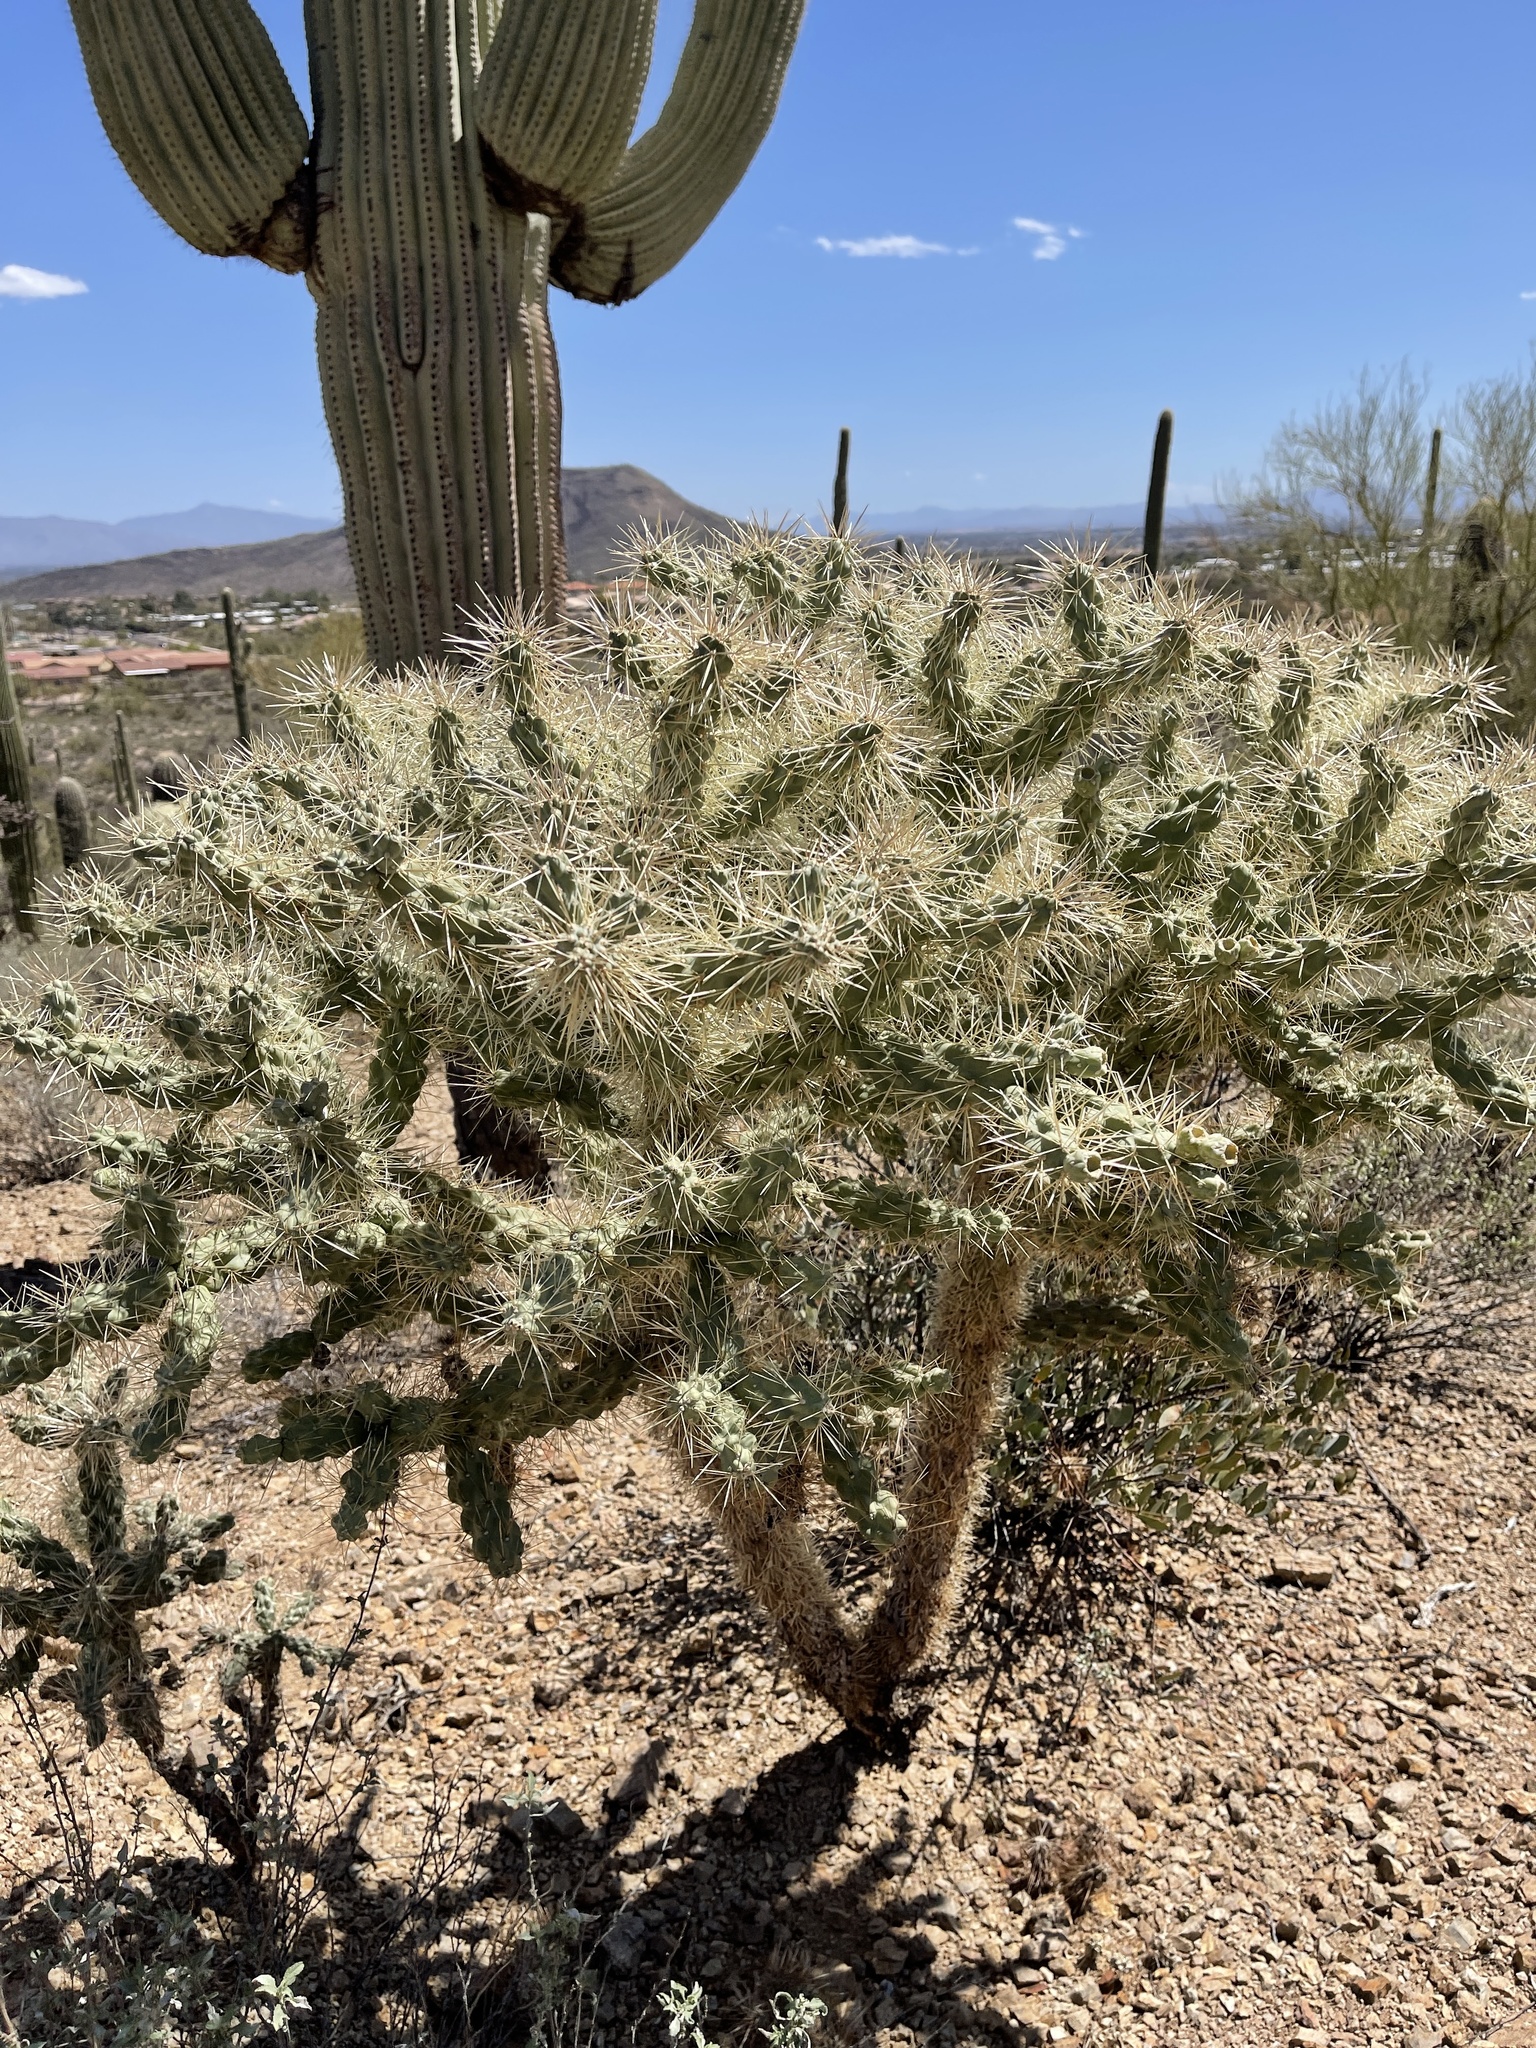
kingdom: Plantae
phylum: Tracheophyta
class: Magnoliopsida
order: Caryophyllales
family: Cactaceae
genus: Cylindropuntia
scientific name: Cylindropuntia fulgida
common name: Jumping cholla
